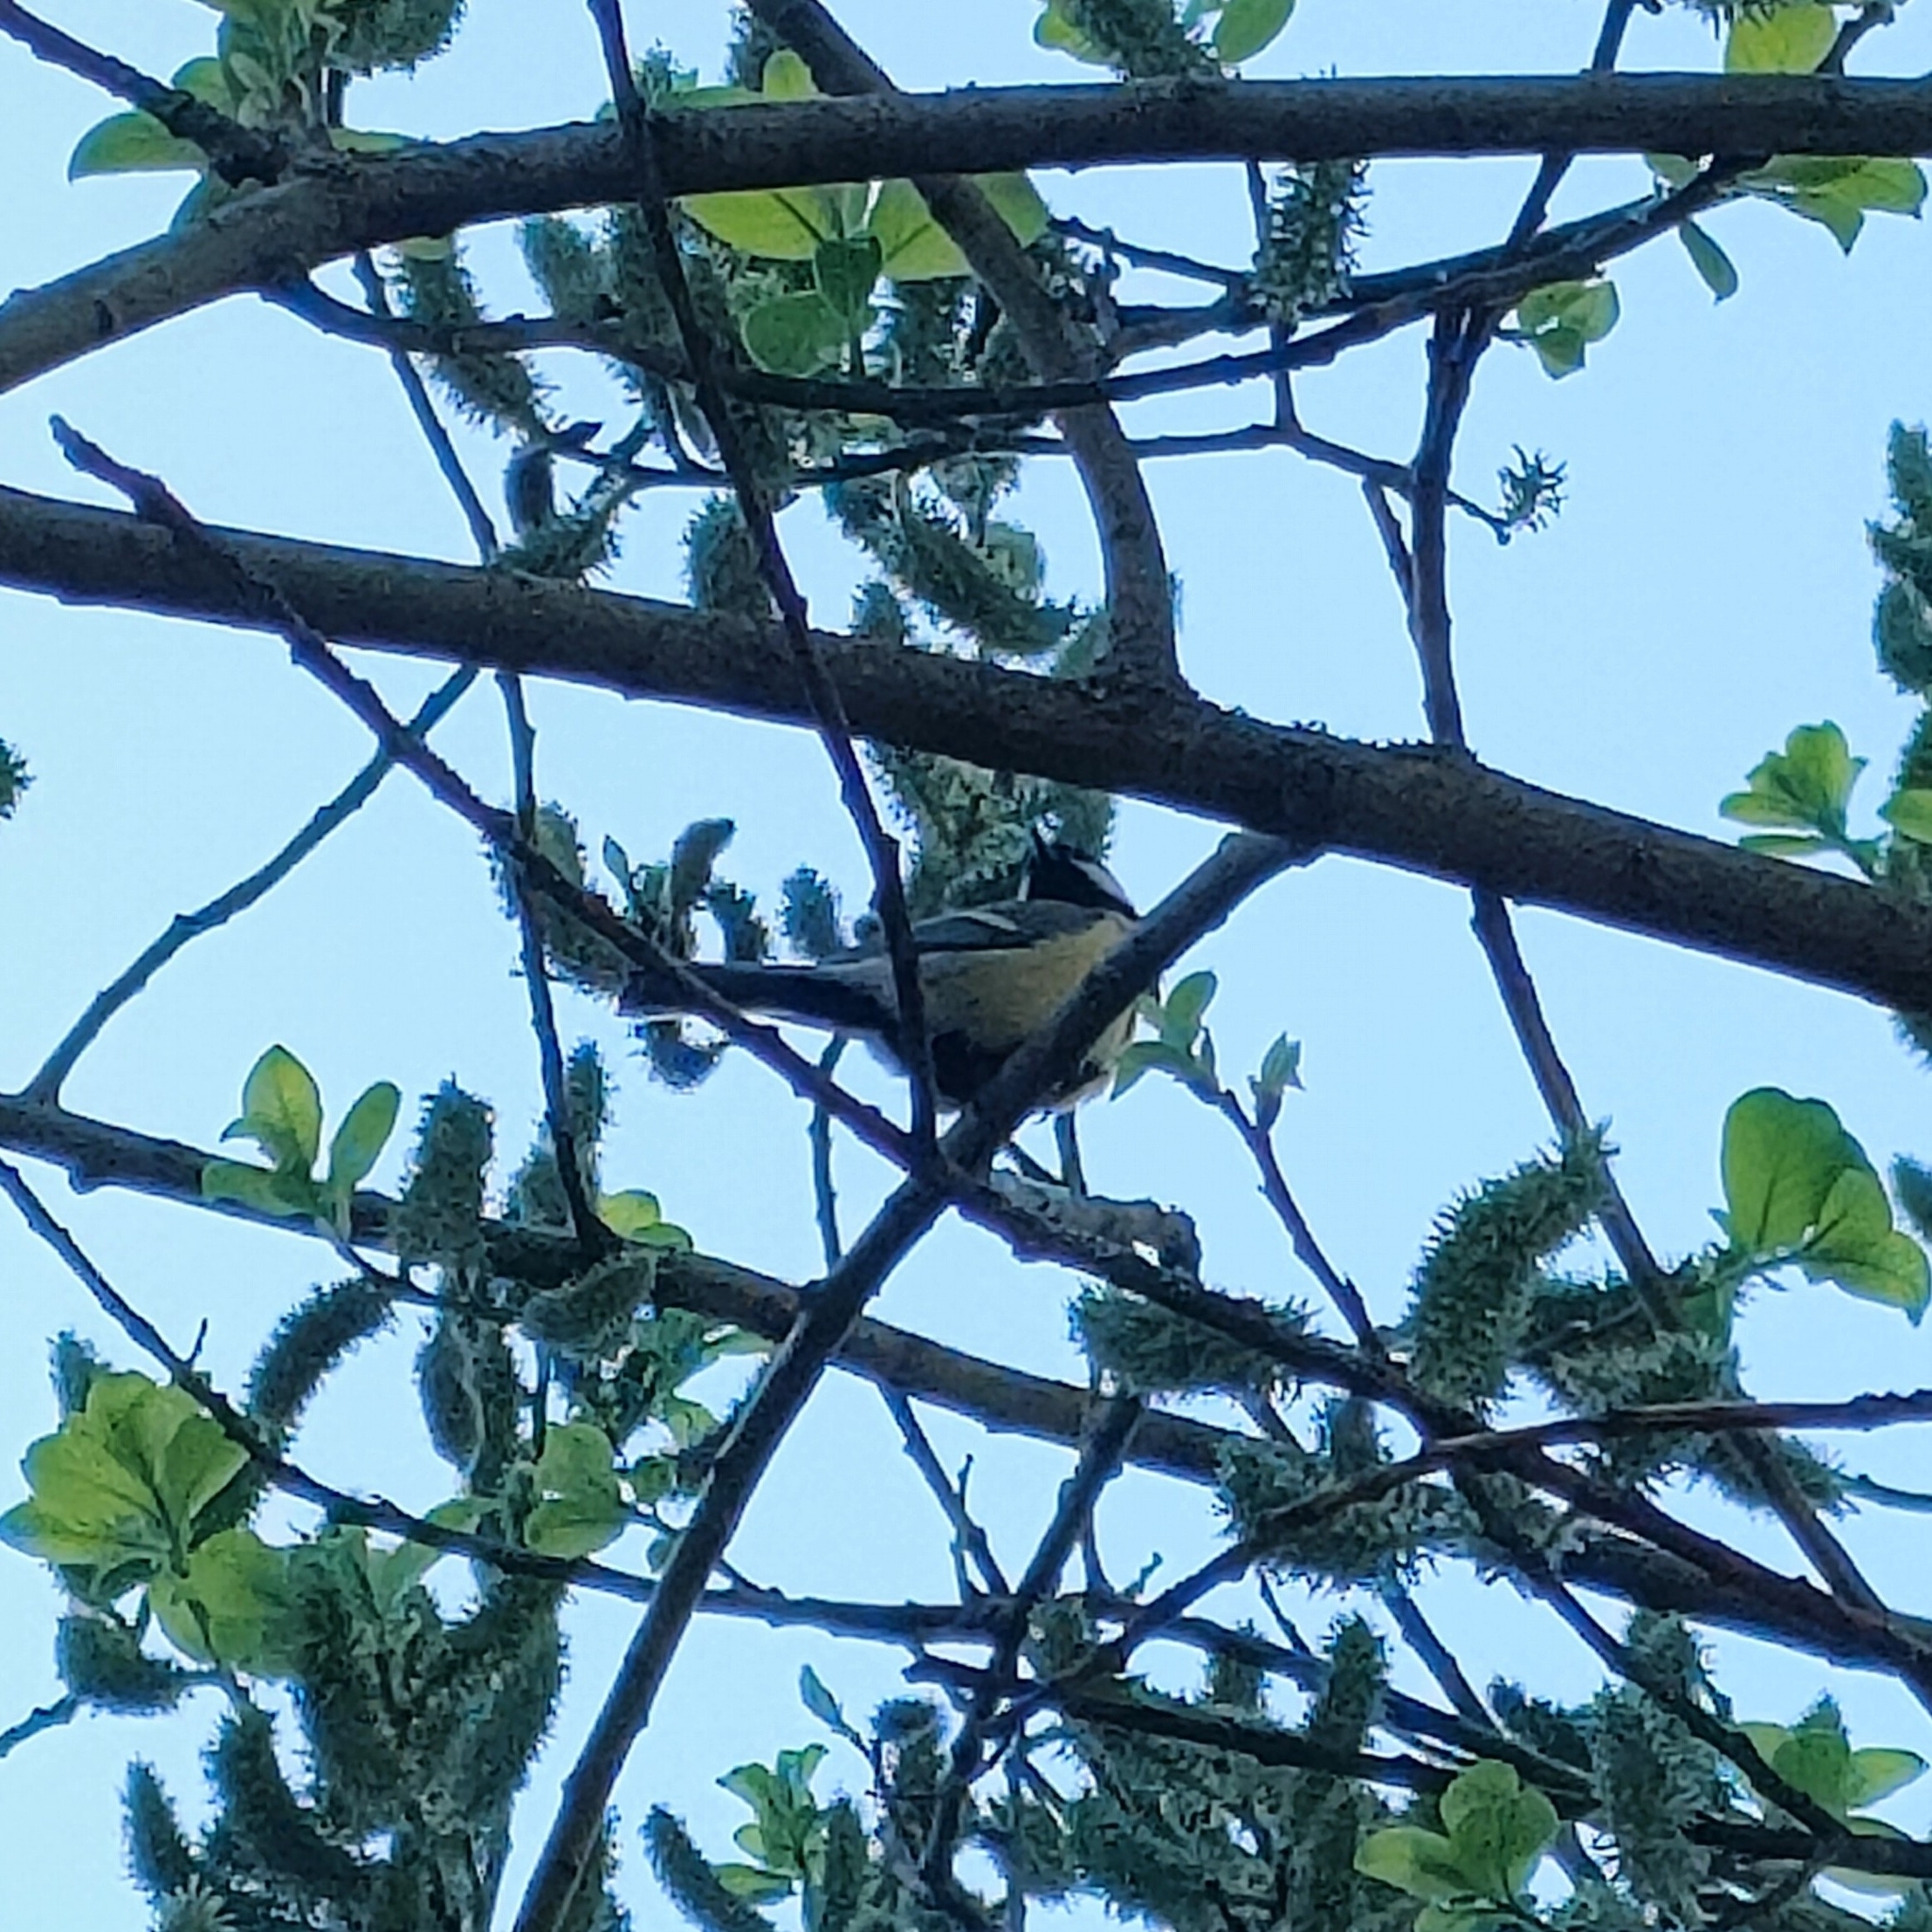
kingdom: Animalia
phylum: Chordata
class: Aves
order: Passeriformes
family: Paridae
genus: Parus
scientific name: Parus major
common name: Great tit
